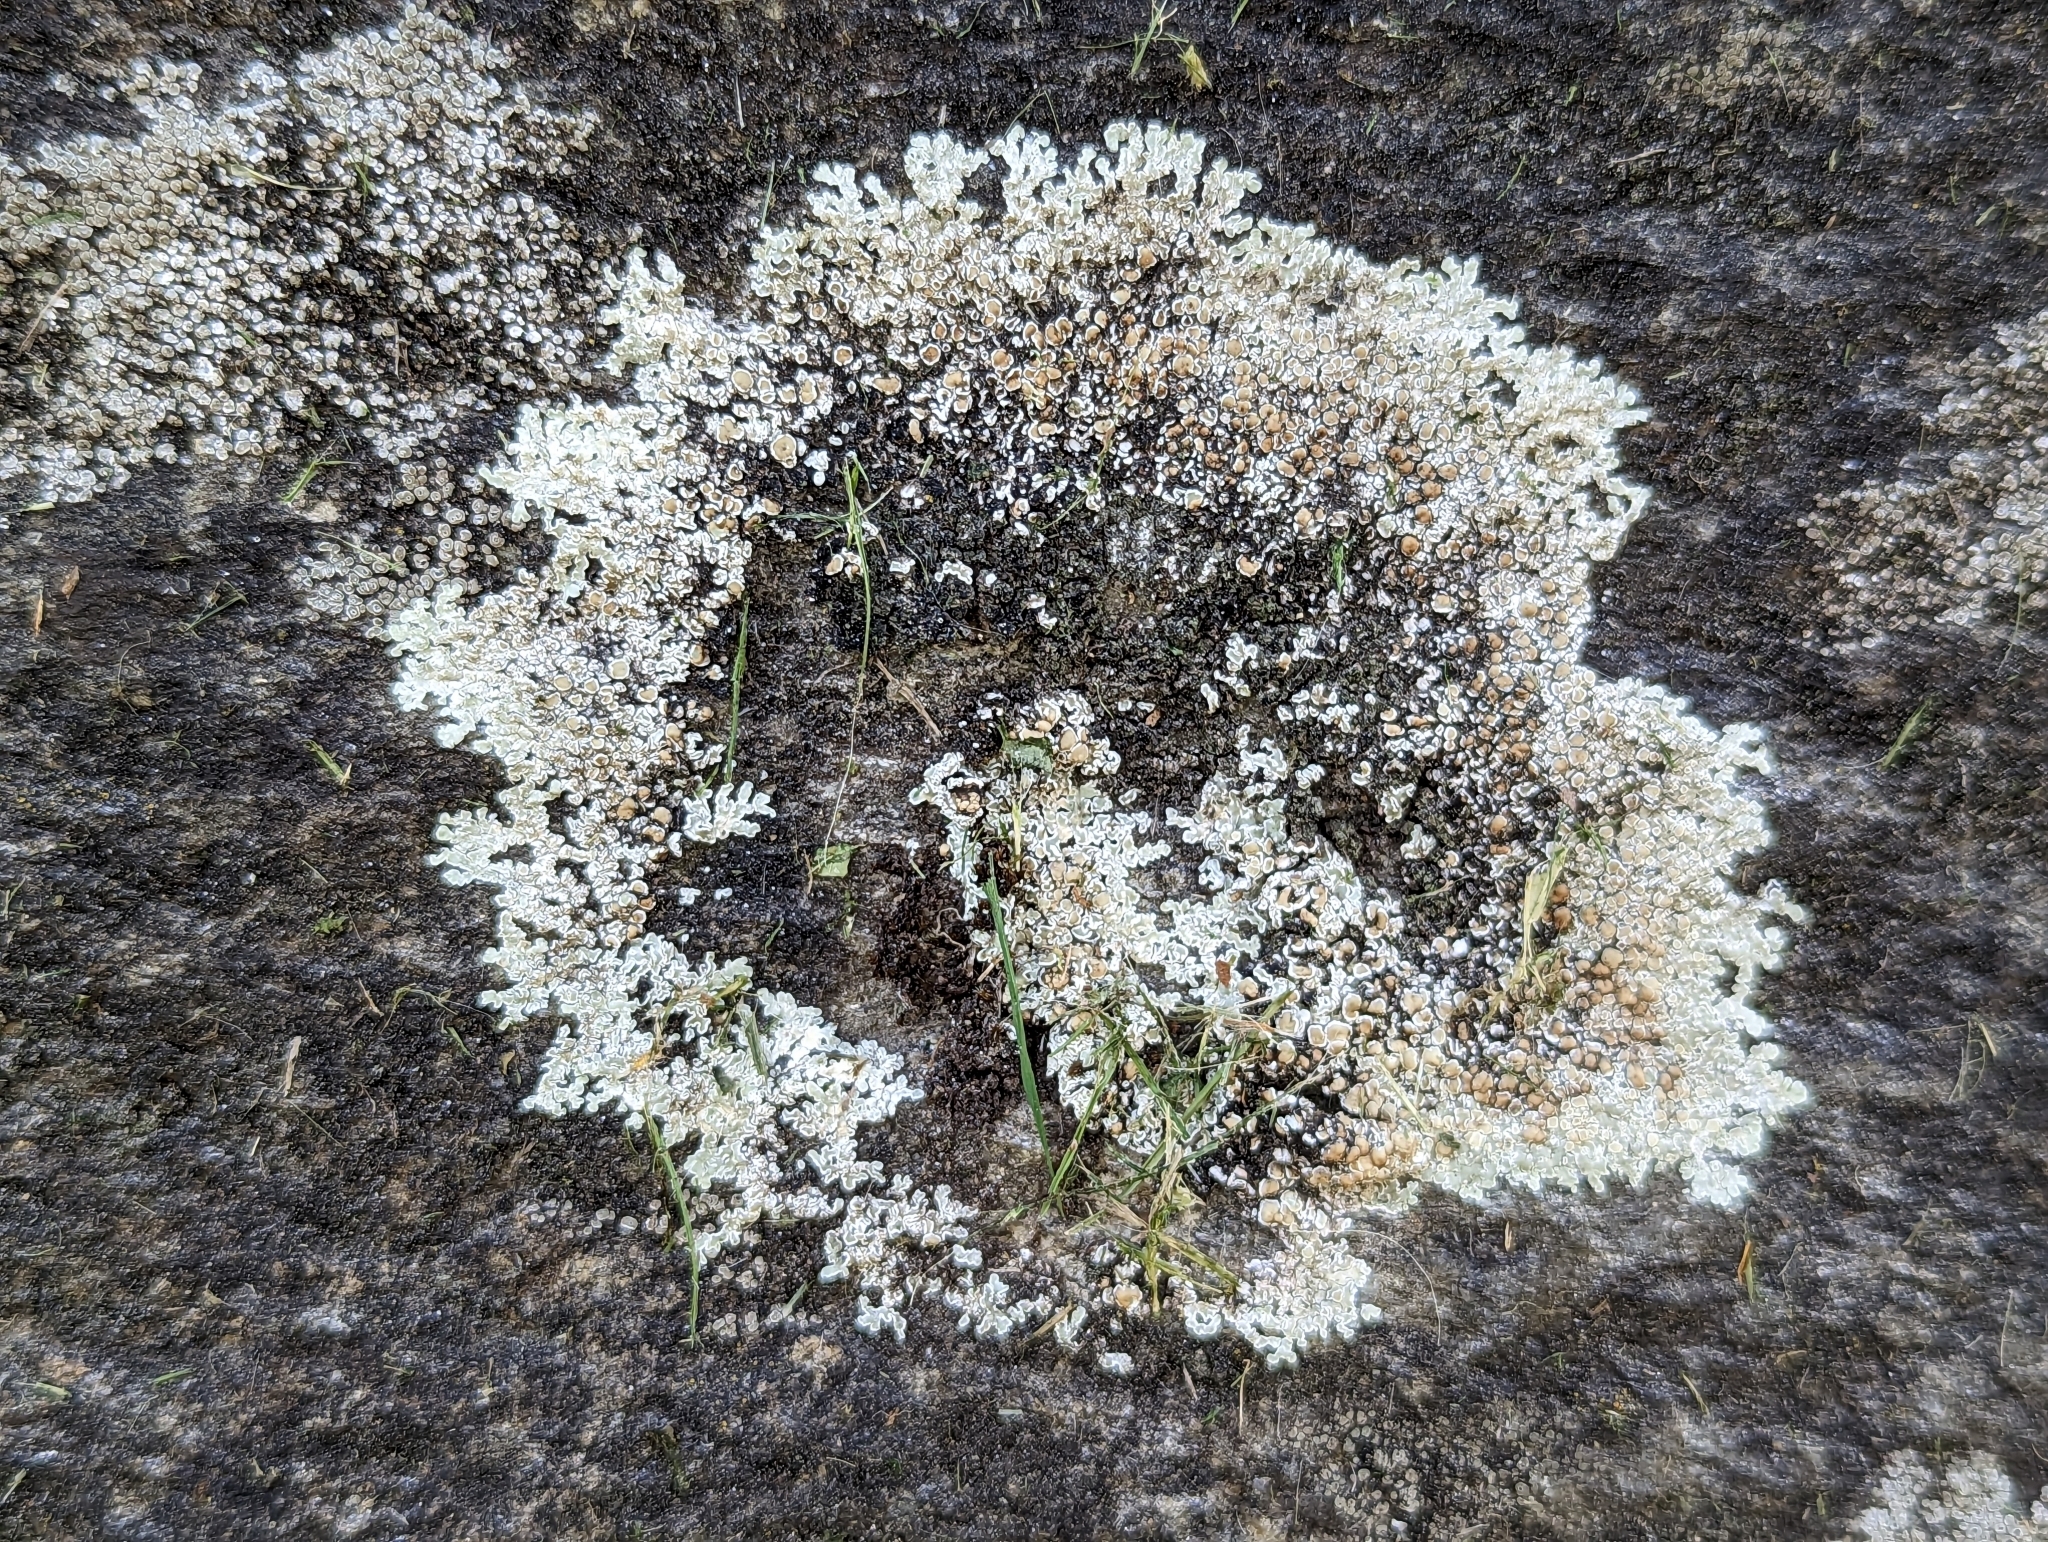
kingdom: Fungi
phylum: Ascomycota
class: Lecanoromycetes
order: Lecanorales
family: Lecanoraceae
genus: Protoparmeliopsis
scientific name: Protoparmeliopsis muralis
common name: Stonewall rim lichen
